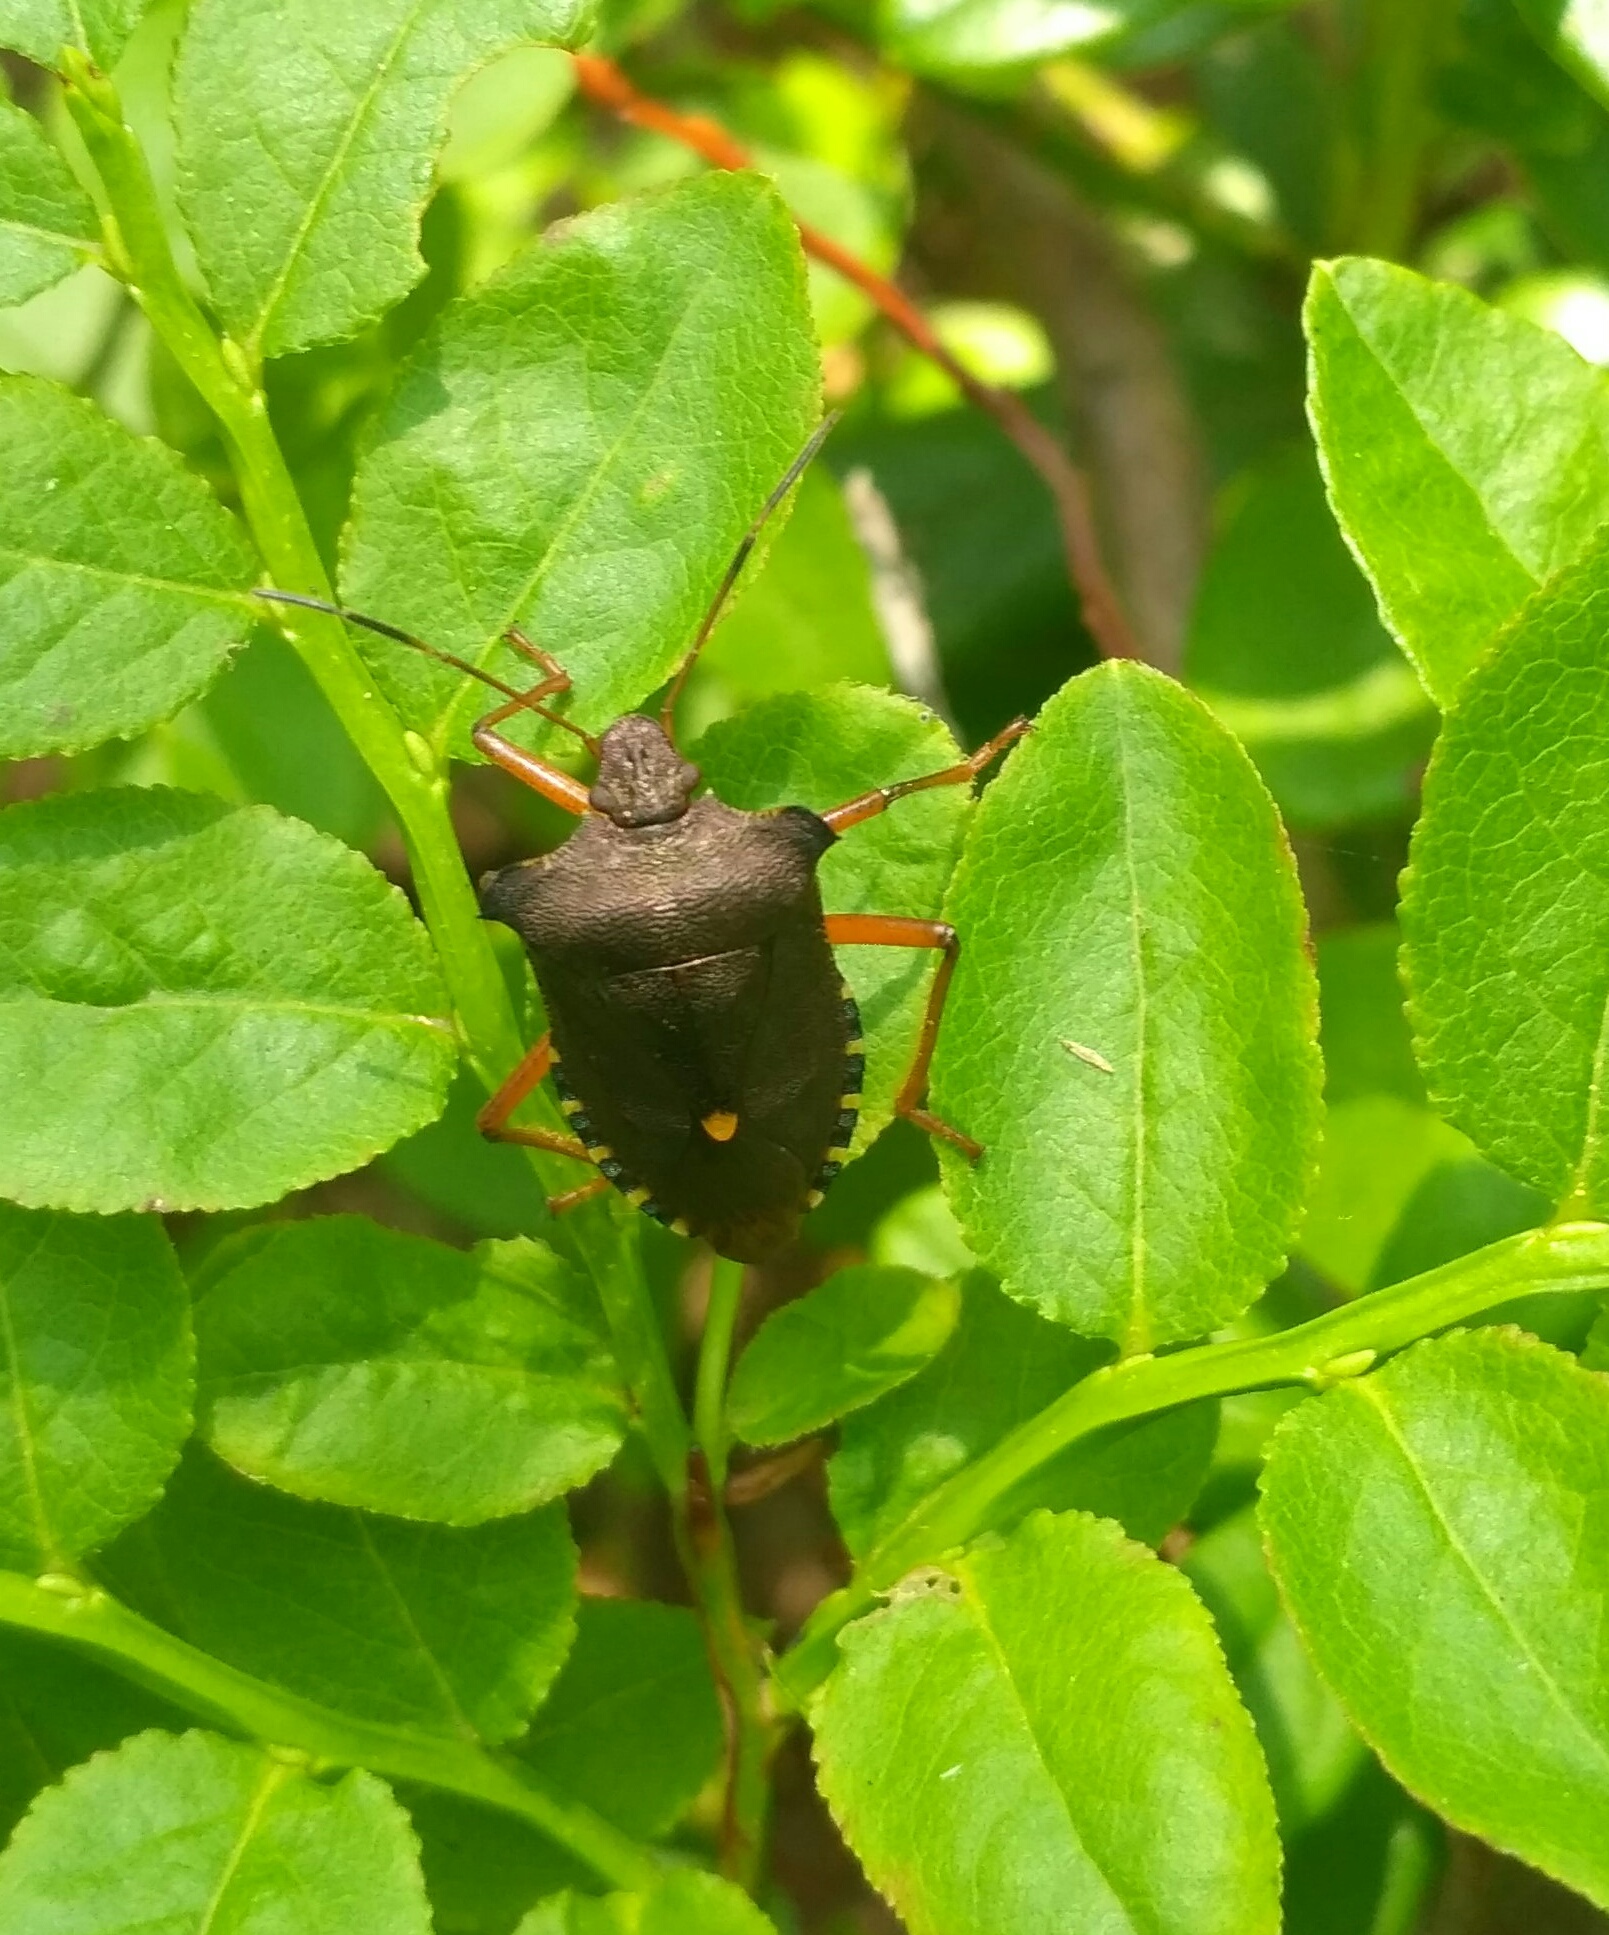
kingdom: Animalia
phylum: Arthropoda
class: Insecta
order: Hemiptera
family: Pentatomidae
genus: Pentatoma
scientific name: Pentatoma rufipes
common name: Forest bug
